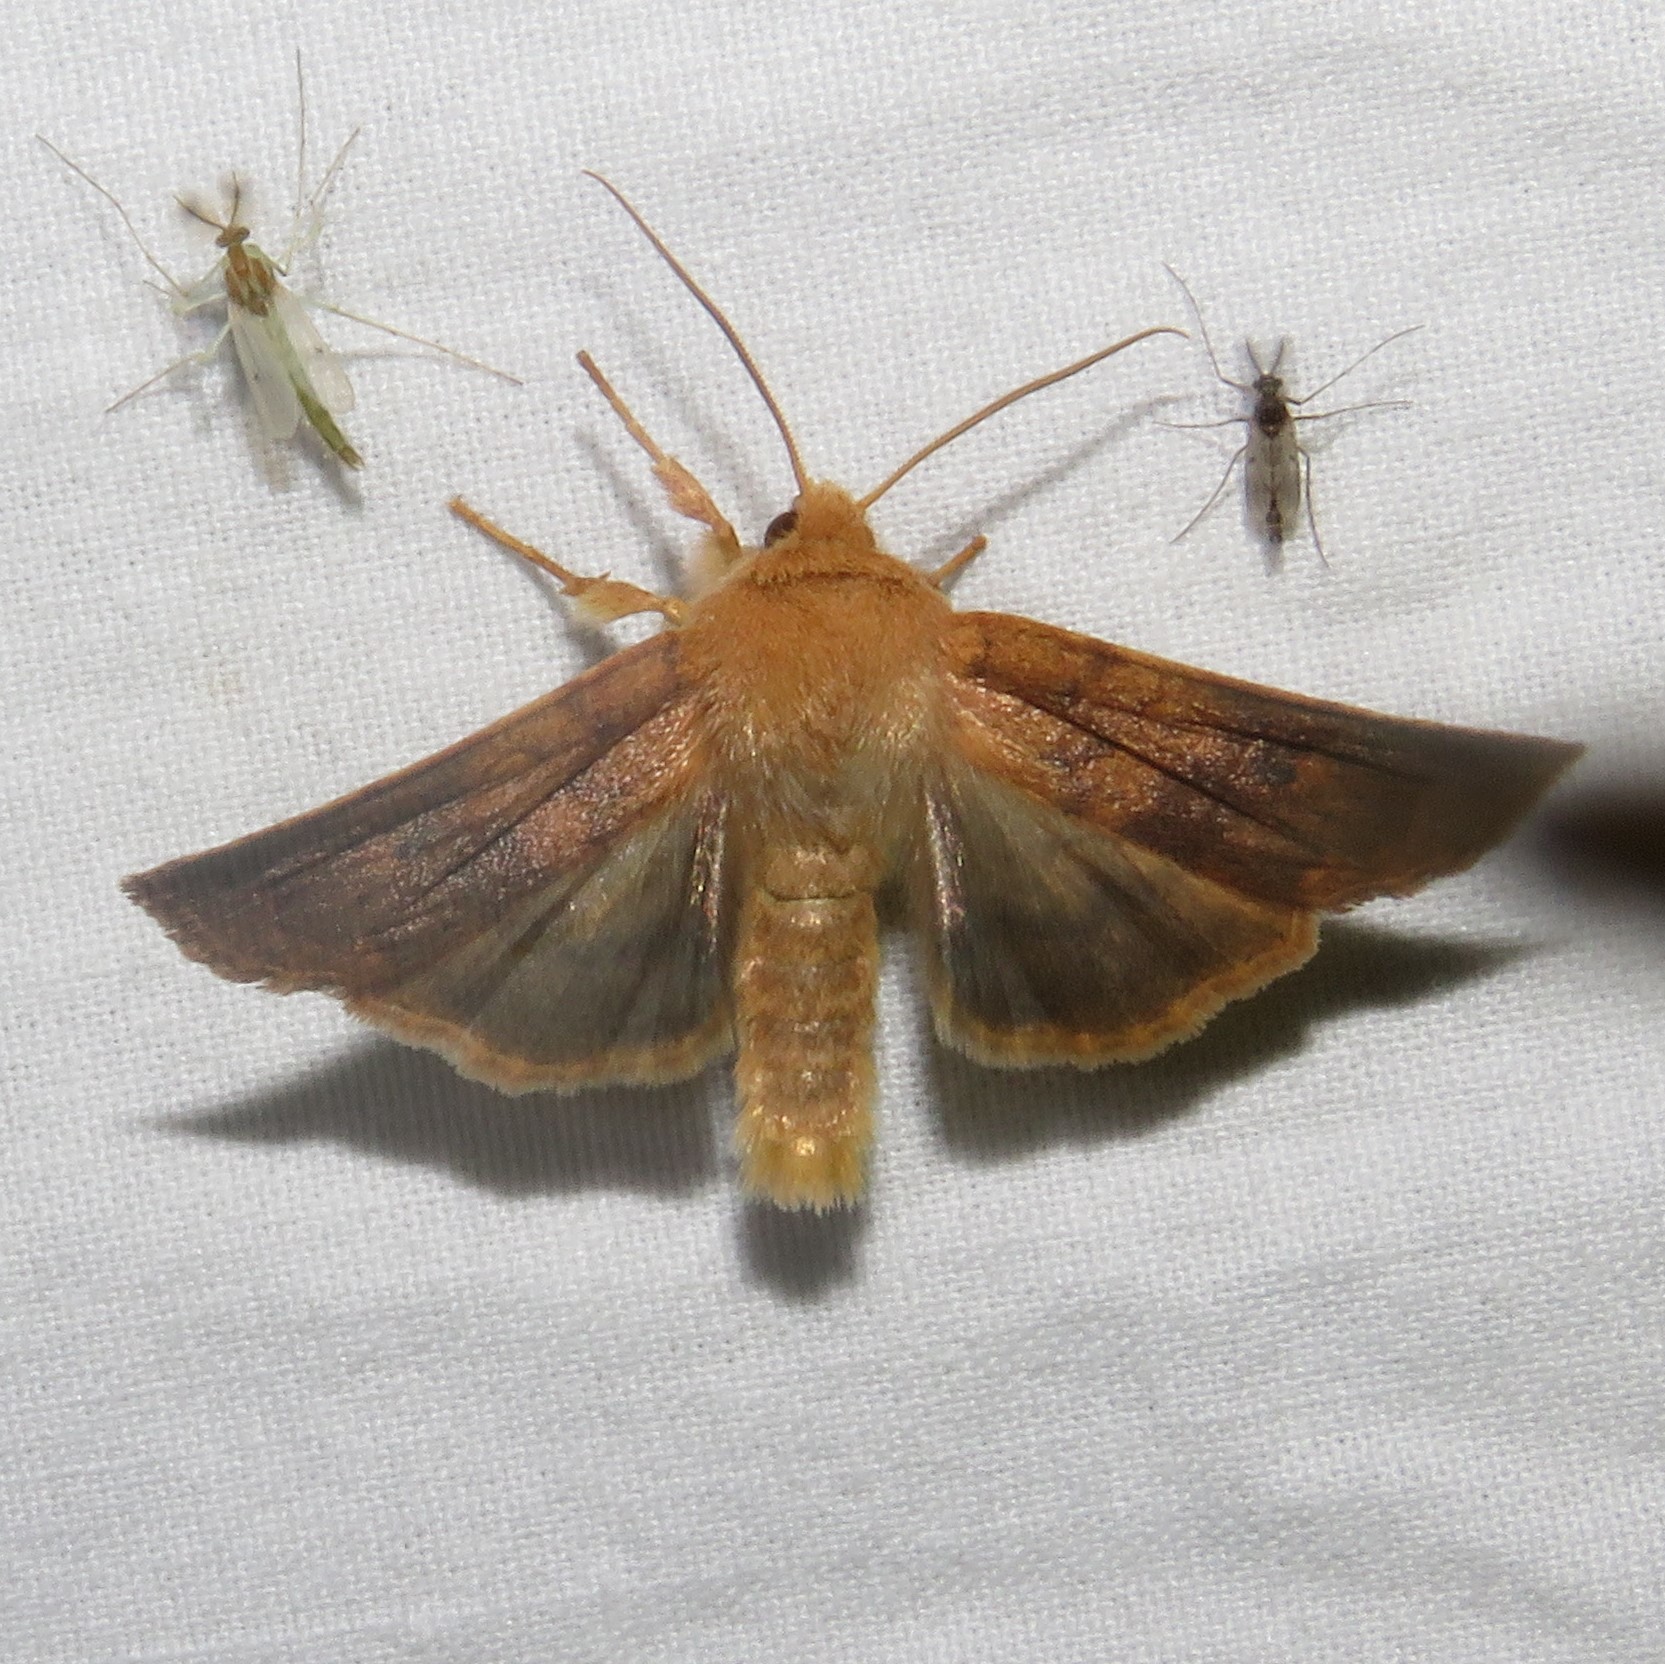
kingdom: Animalia
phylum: Arthropoda
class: Insecta
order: Lepidoptera
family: Noctuidae
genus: Agrochola
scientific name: Agrochola bicolorago
